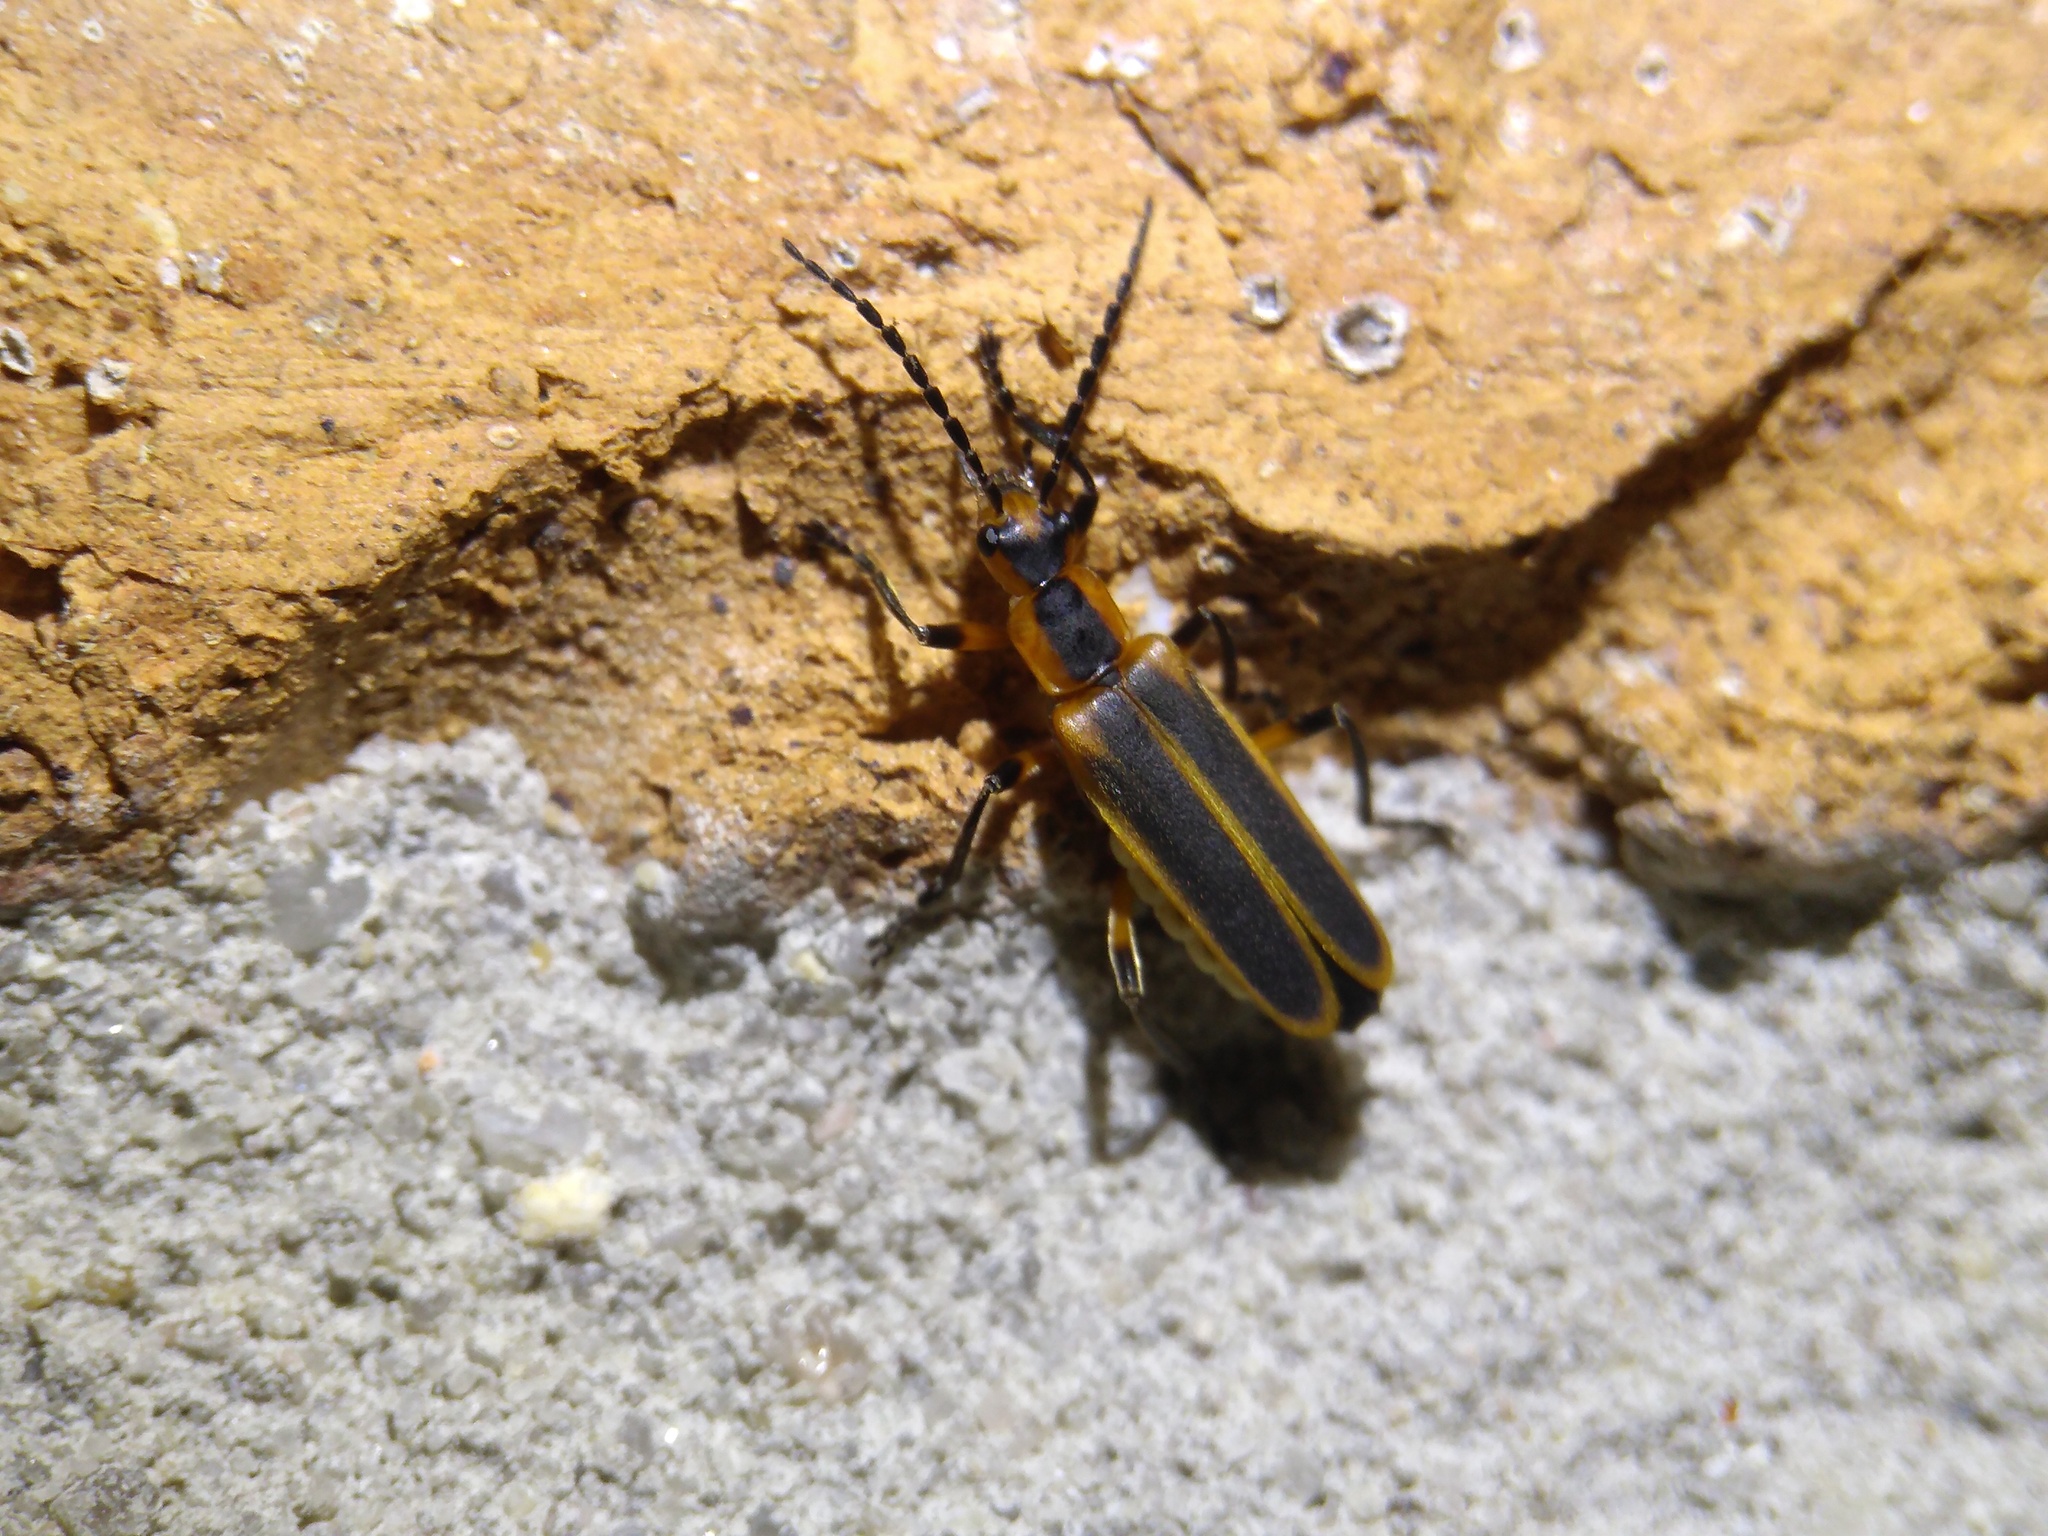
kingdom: Animalia
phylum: Arthropoda
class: Insecta
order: Coleoptera
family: Cantharidae
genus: Chauliognathus
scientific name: Chauliognathus marginatus
